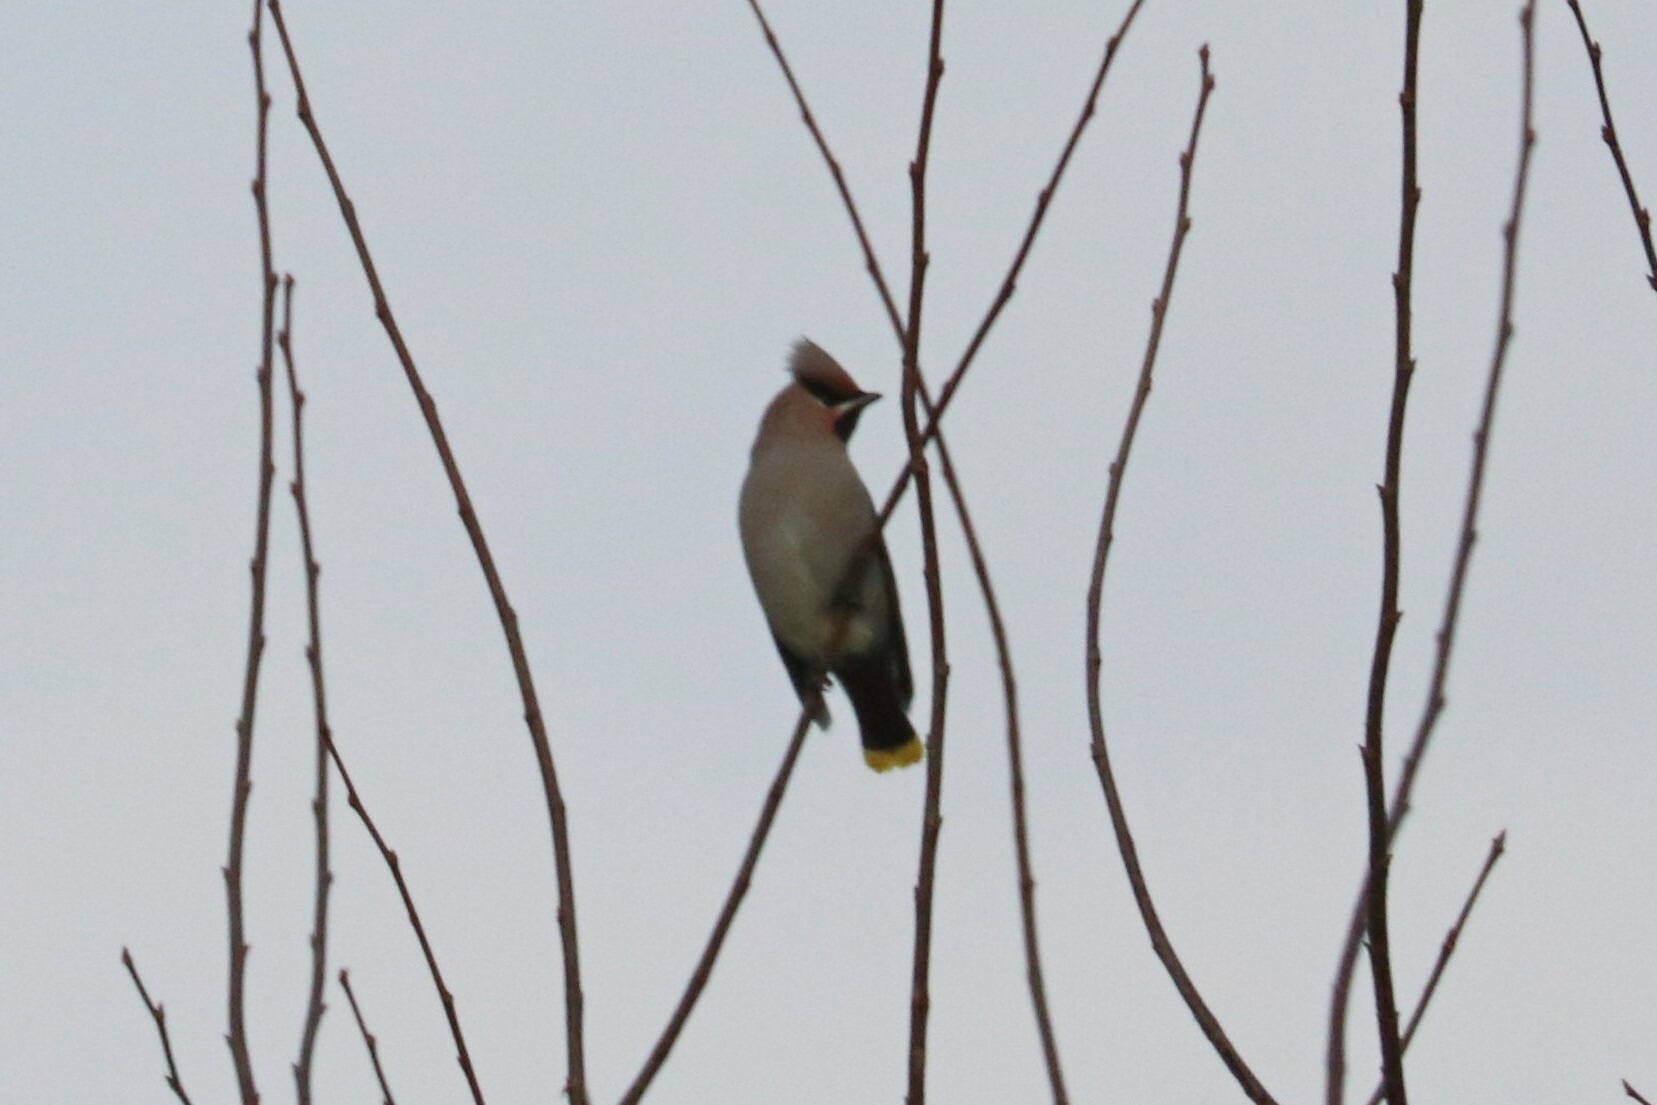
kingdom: Animalia
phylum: Chordata
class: Aves
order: Passeriformes
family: Bombycillidae
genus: Bombycilla
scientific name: Bombycilla garrulus
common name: Bohemian waxwing
